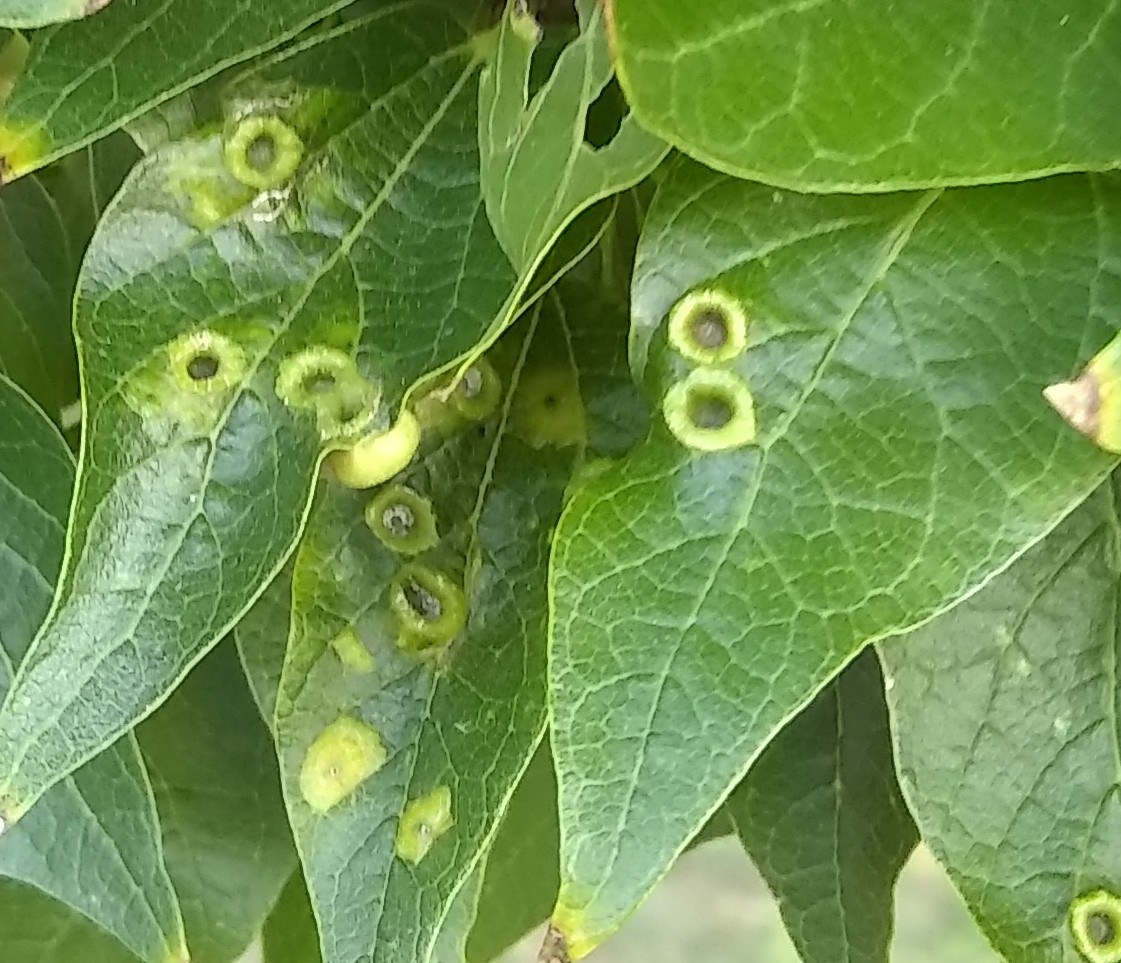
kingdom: Animalia
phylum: Arthropoda
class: Insecta
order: Hemiptera
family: Aphalaridae
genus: Pachypsylla
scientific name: Pachypsylla celtidismamma
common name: Hackberry nipplegall psyllid
